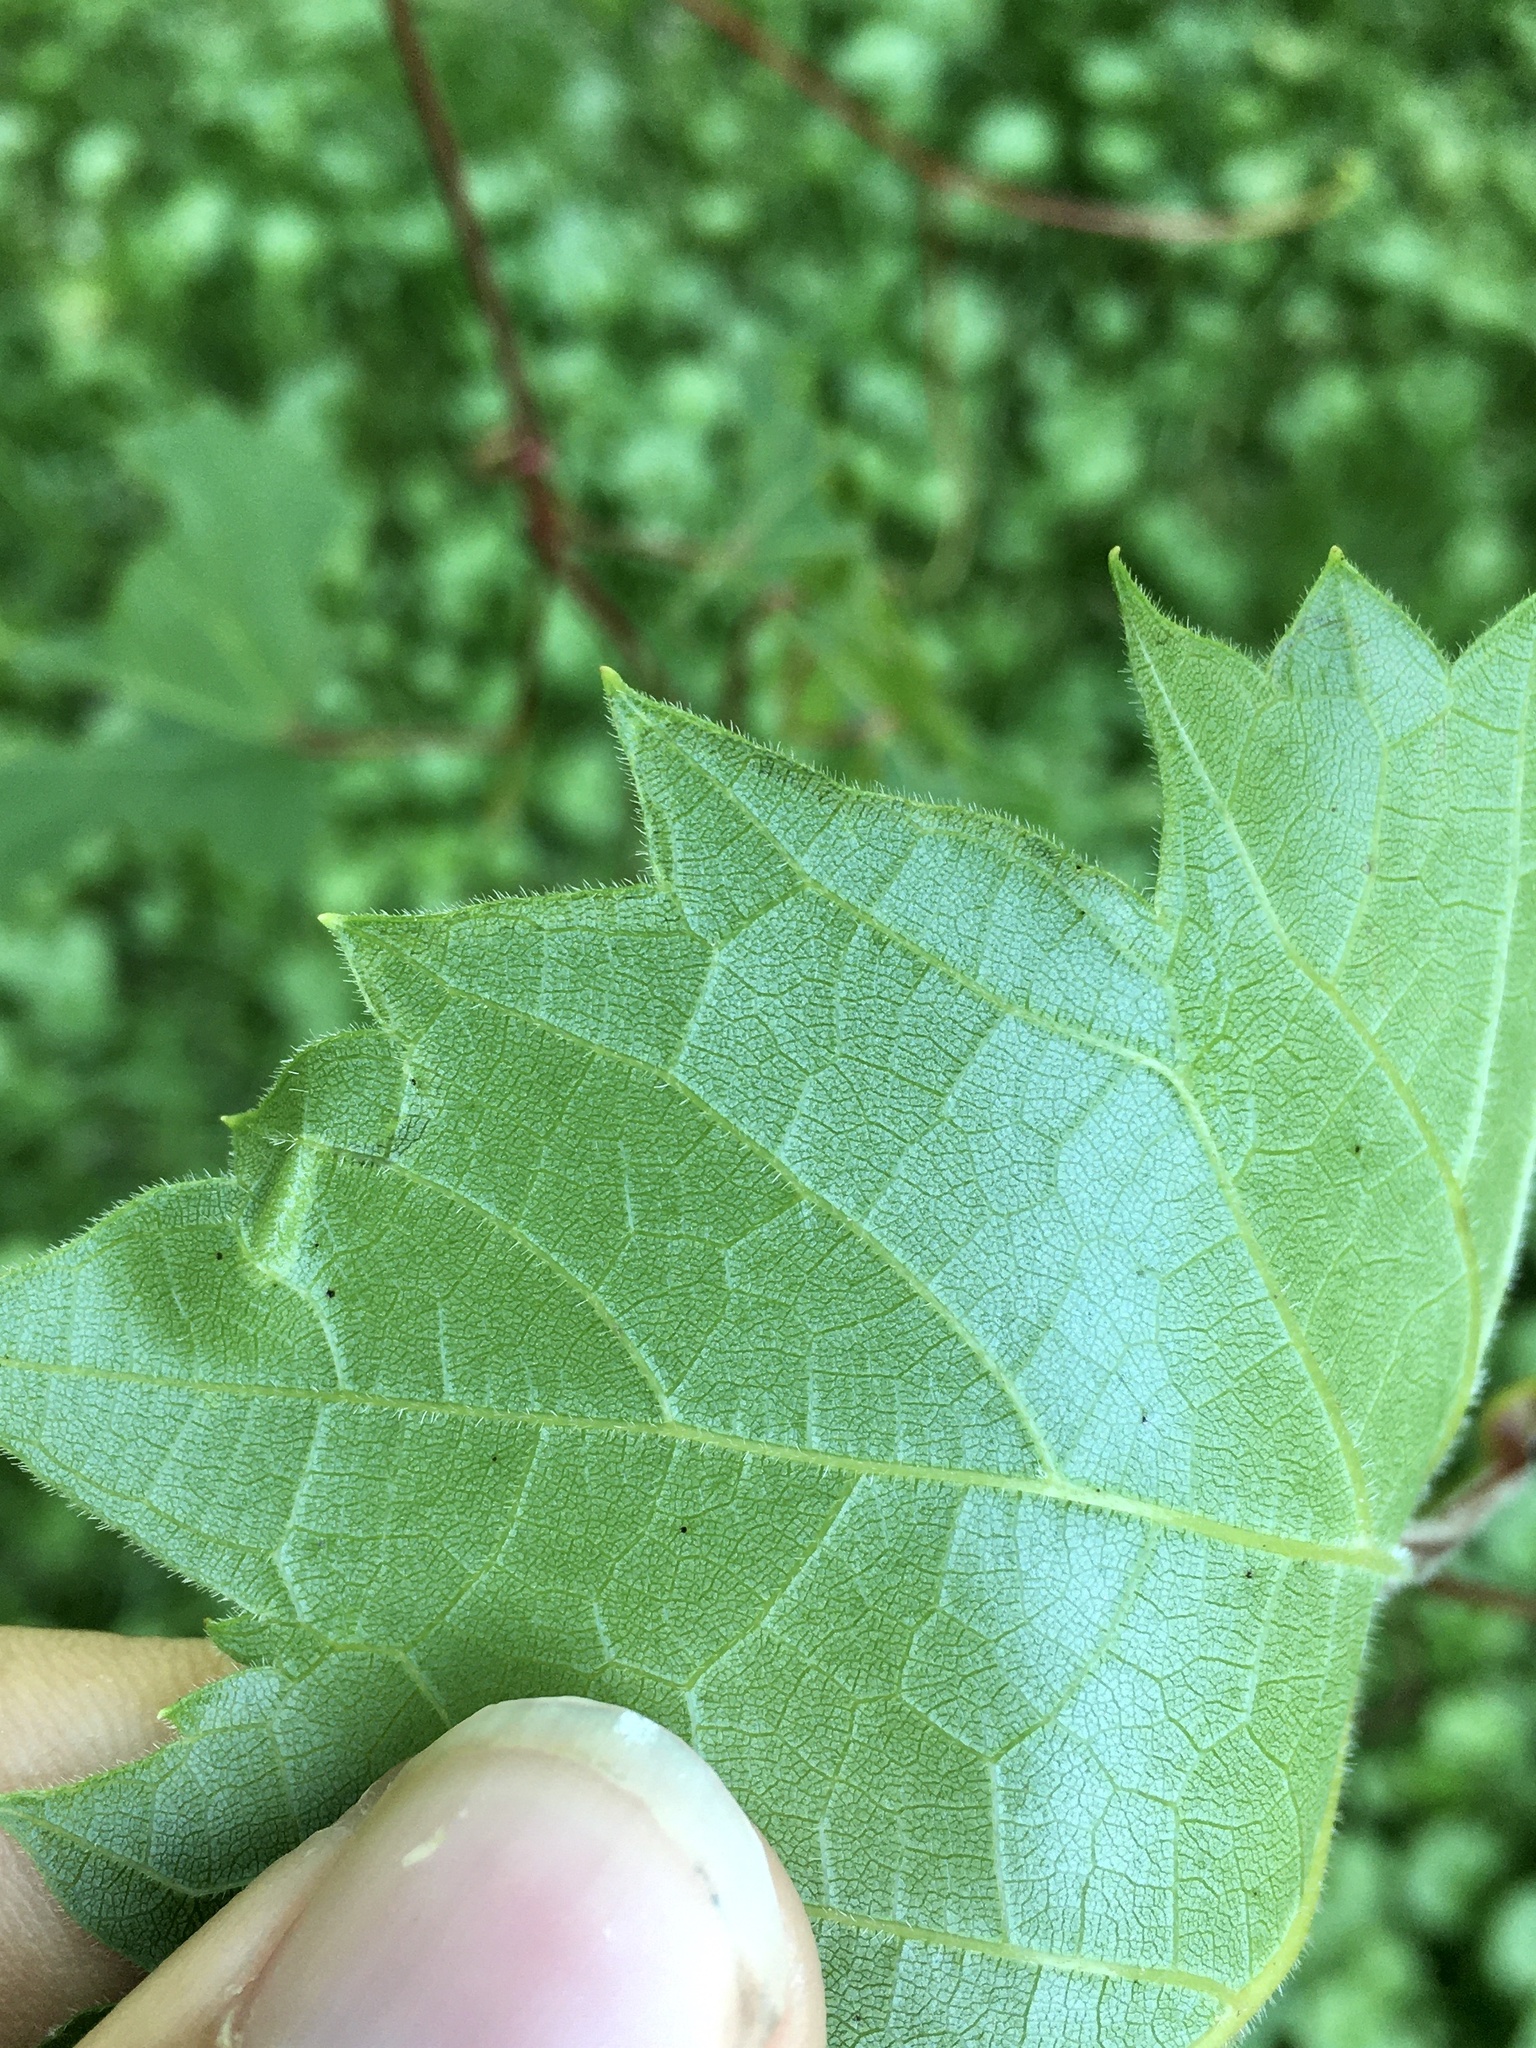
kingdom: Animalia
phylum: Arthropoda
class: Insecta
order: Lepidoptera
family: Gracillariidae
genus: Phyllocnistis
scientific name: Phyllocnistis vitifoliella
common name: Grape leaf-miner moth
